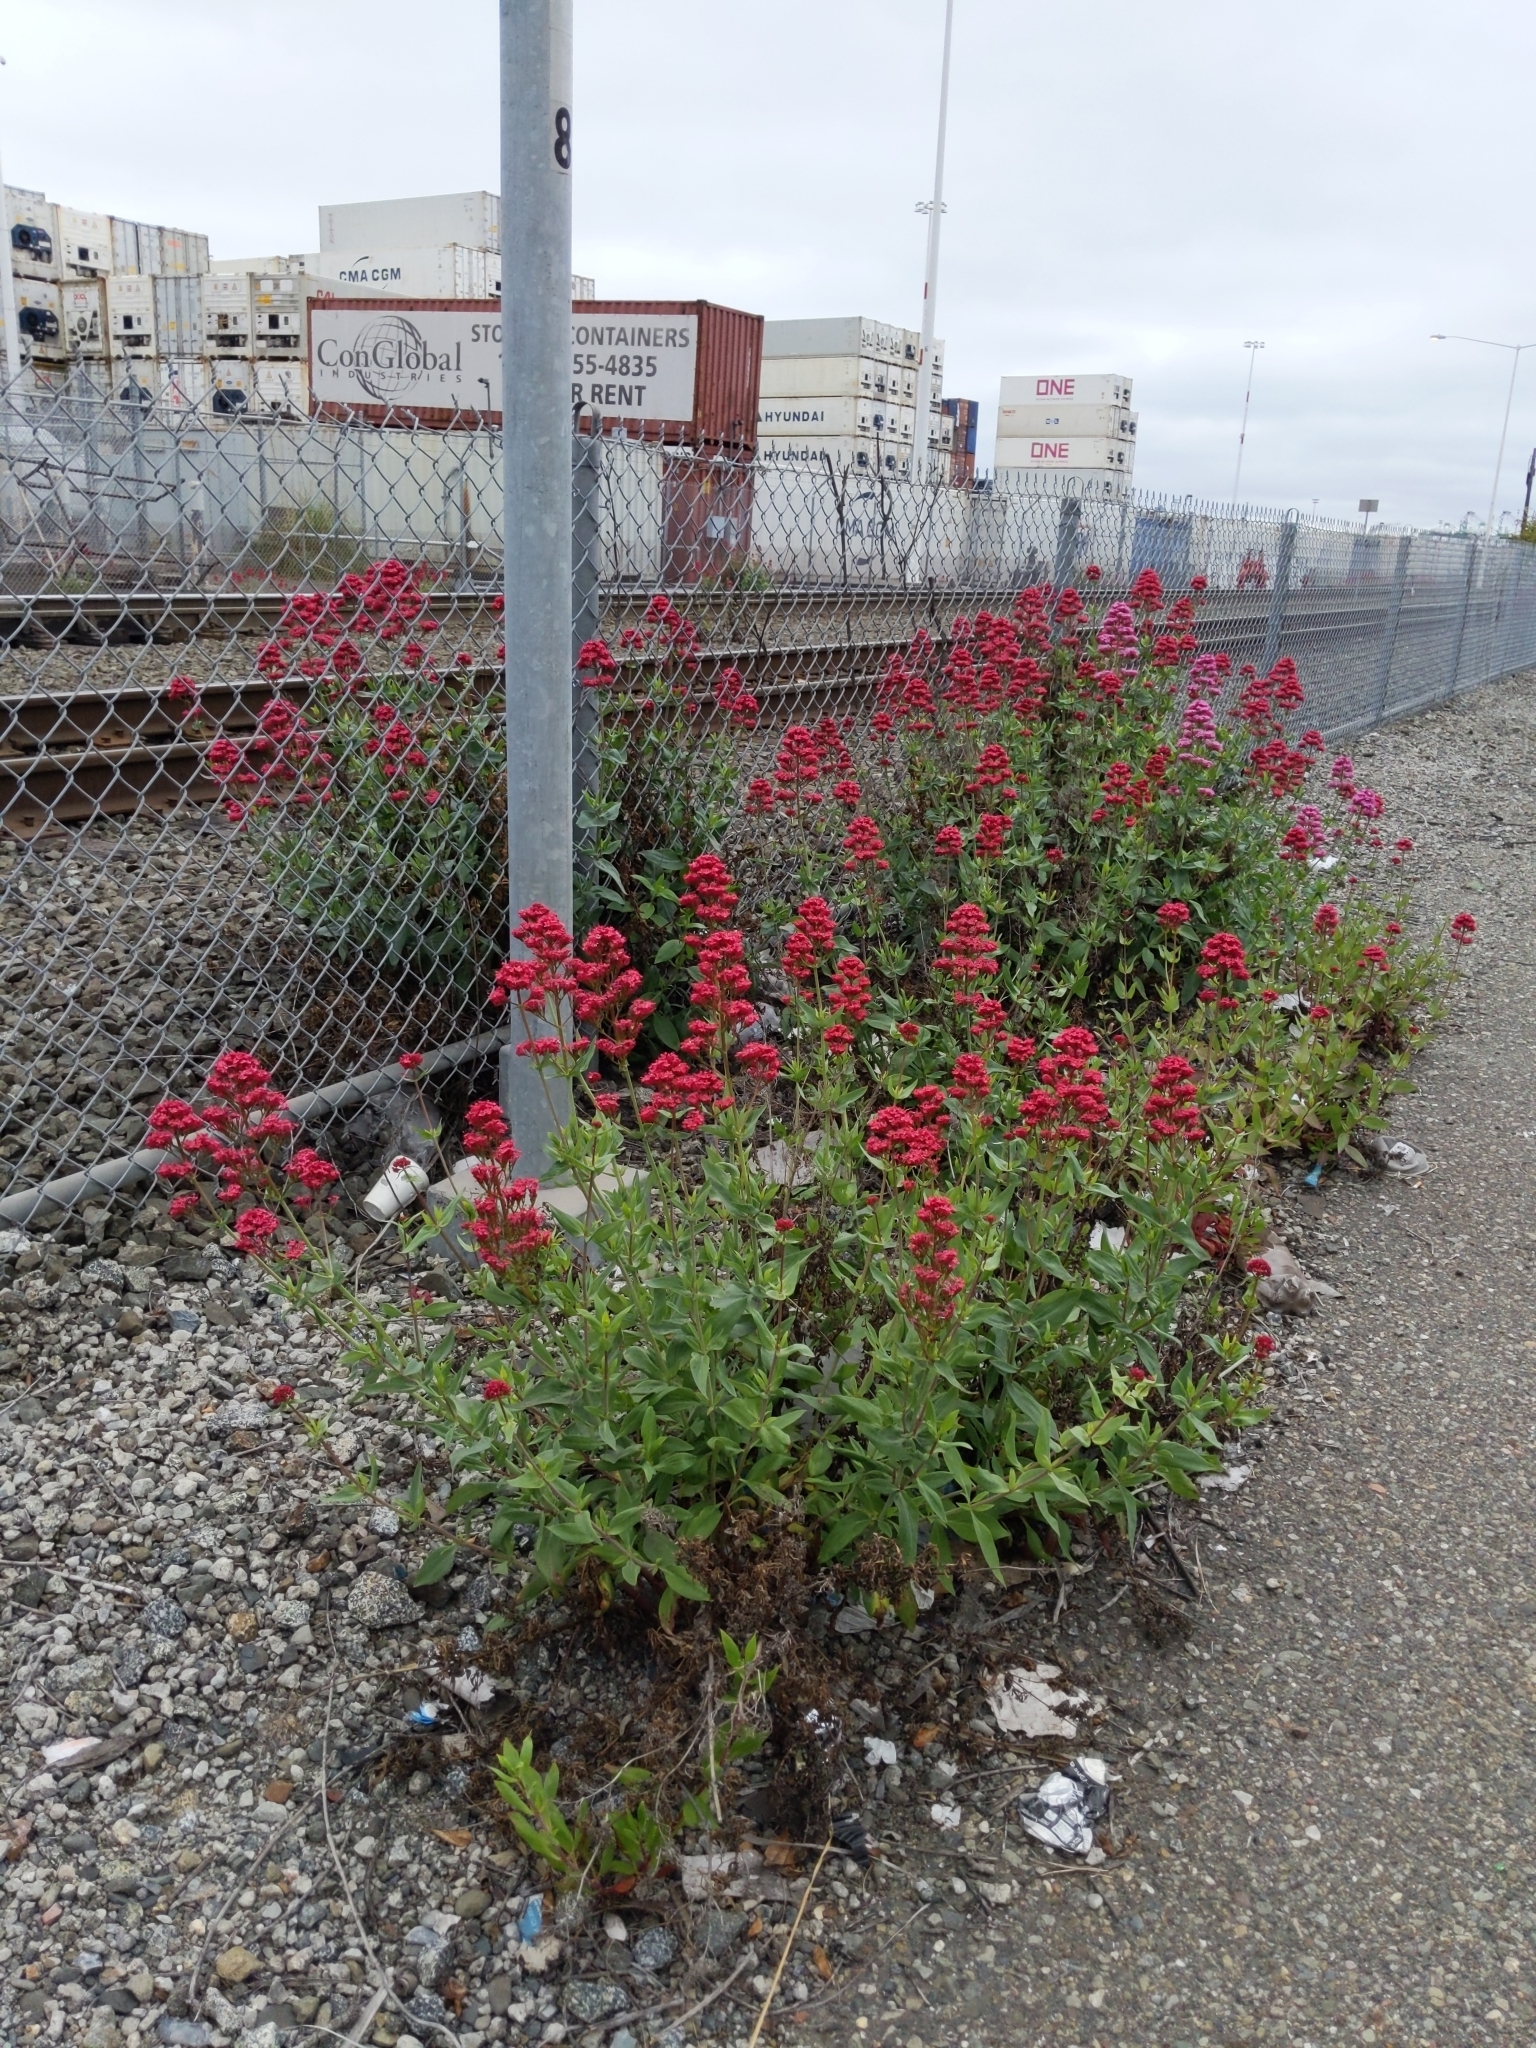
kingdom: Plantae
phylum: Tracheophyta
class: Magnoliopsida
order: Dipsacales
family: Caprifoliaceae
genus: Centranthus
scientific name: Centranthus ruber
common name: Red valerian
